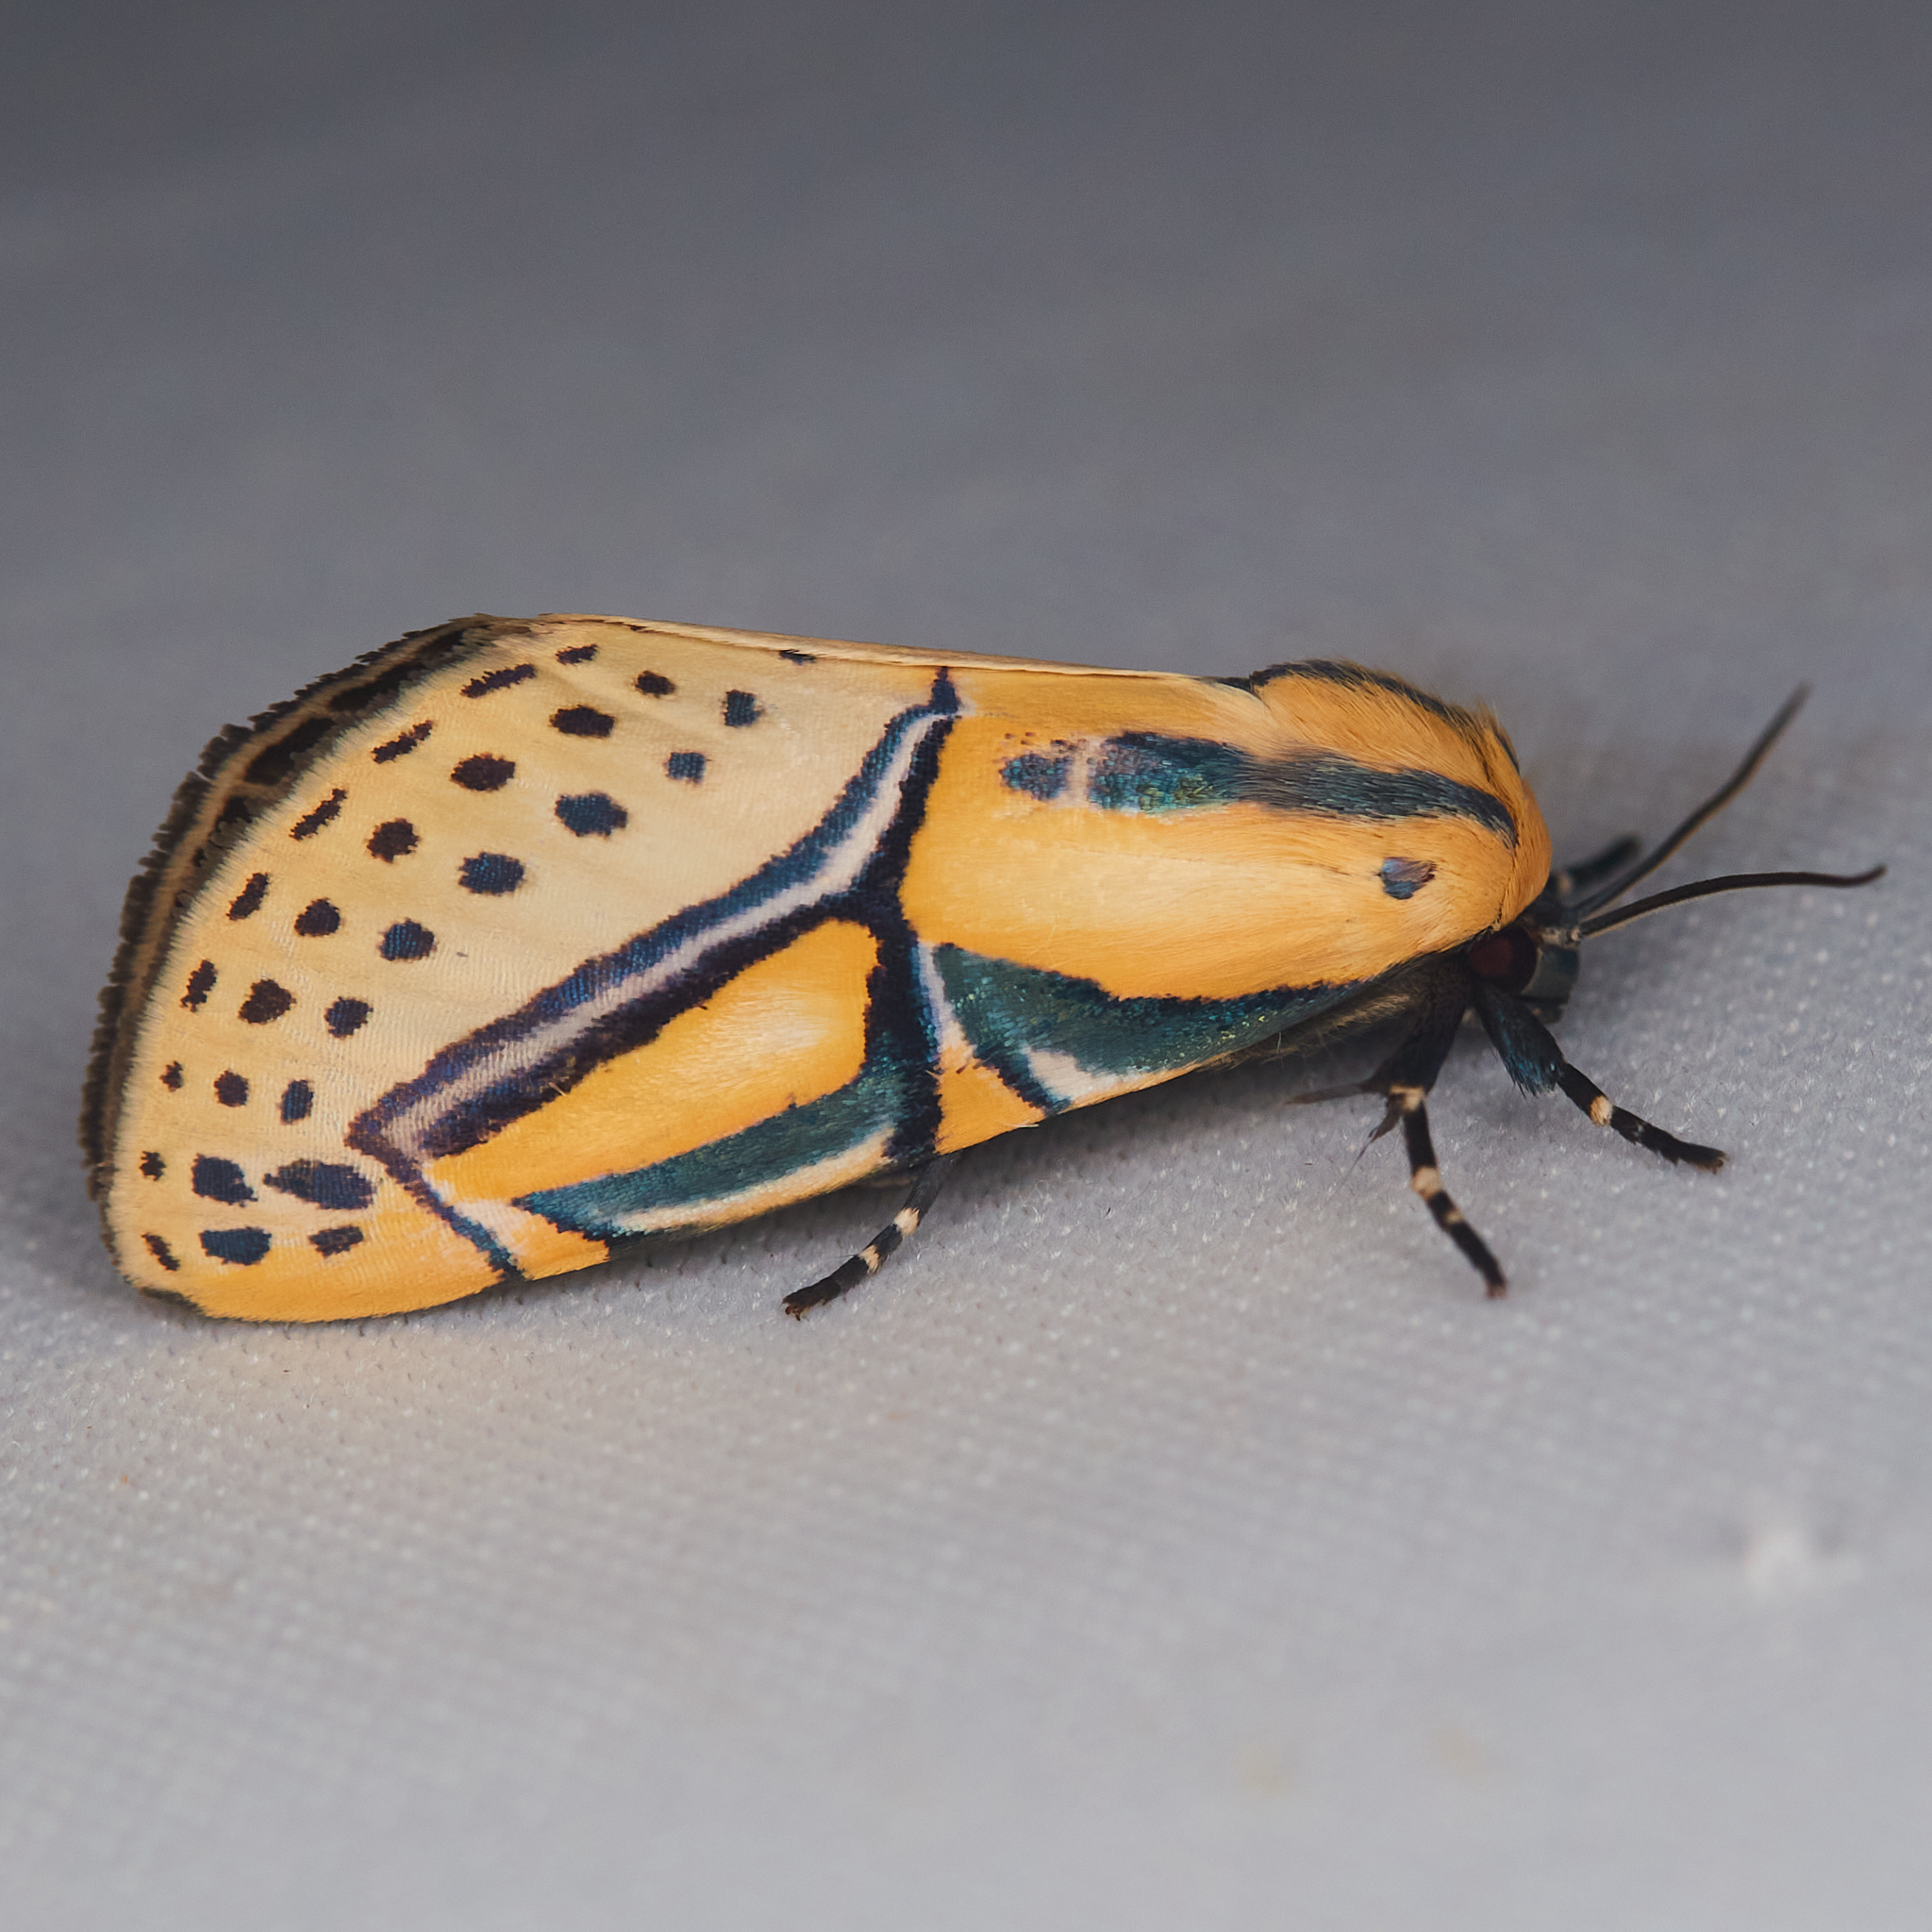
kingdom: Animalia
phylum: Arthropoda
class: Insecta
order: Lepidoptera
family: Erebidae
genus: Diphthera
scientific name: Diphthera festiva
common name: Hieroglyphic moth
